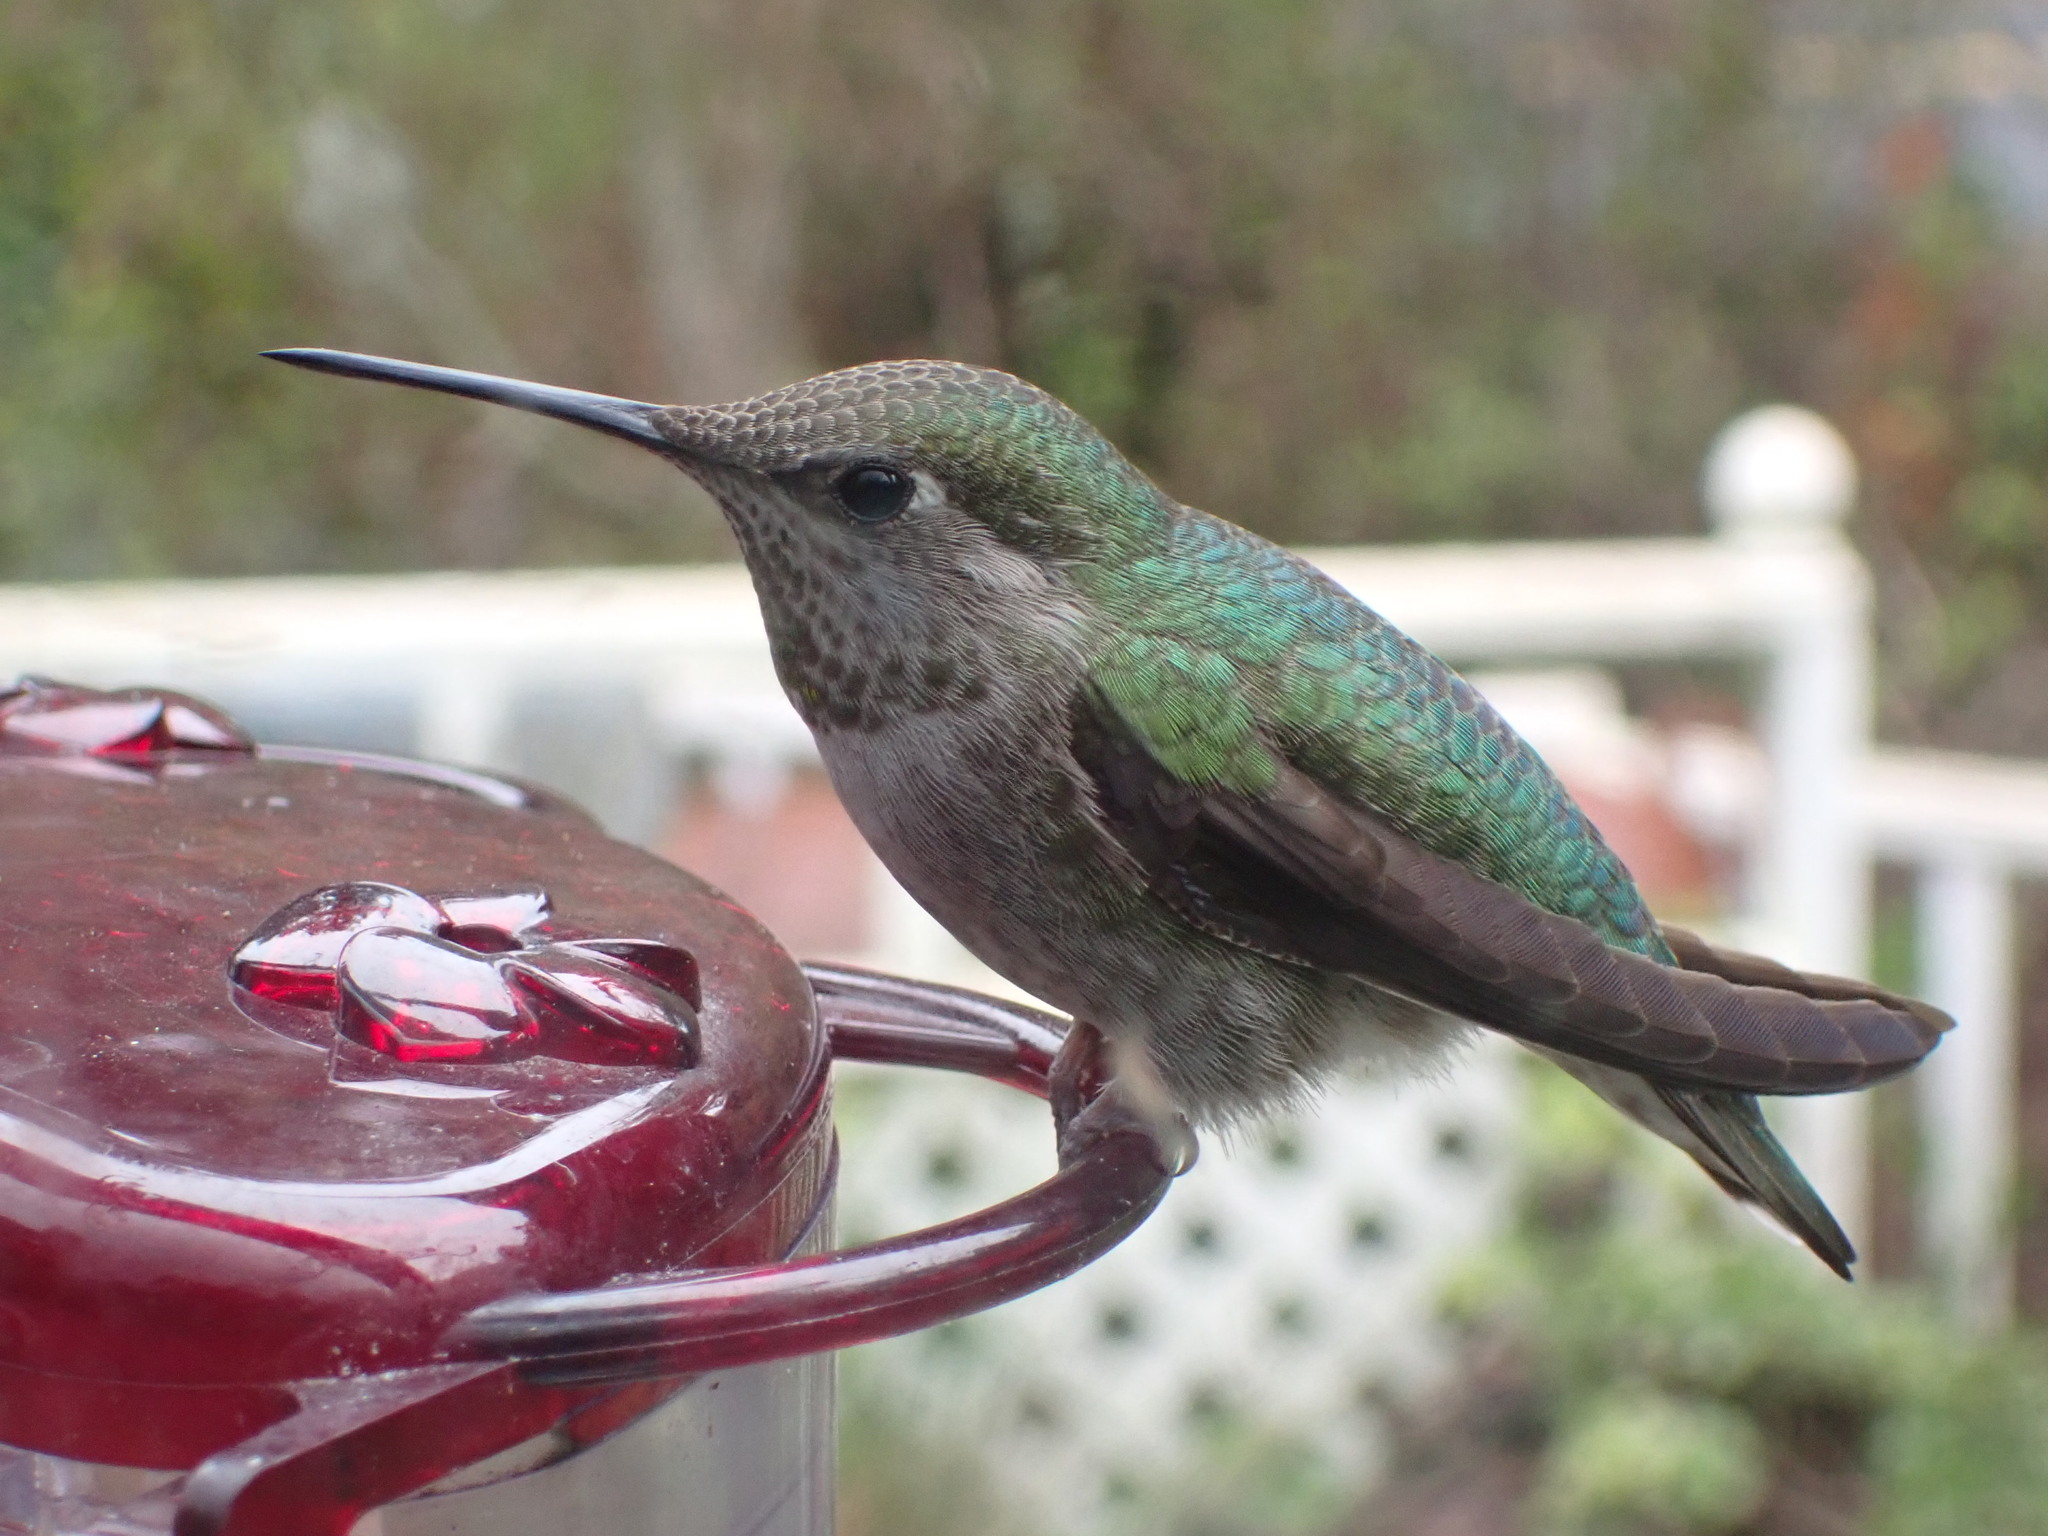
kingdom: Animalia
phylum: Chordata
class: Aves
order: Apodiformes
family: Trochilidae
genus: Calypte
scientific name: Calypte anna
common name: Anna's hummingbird
